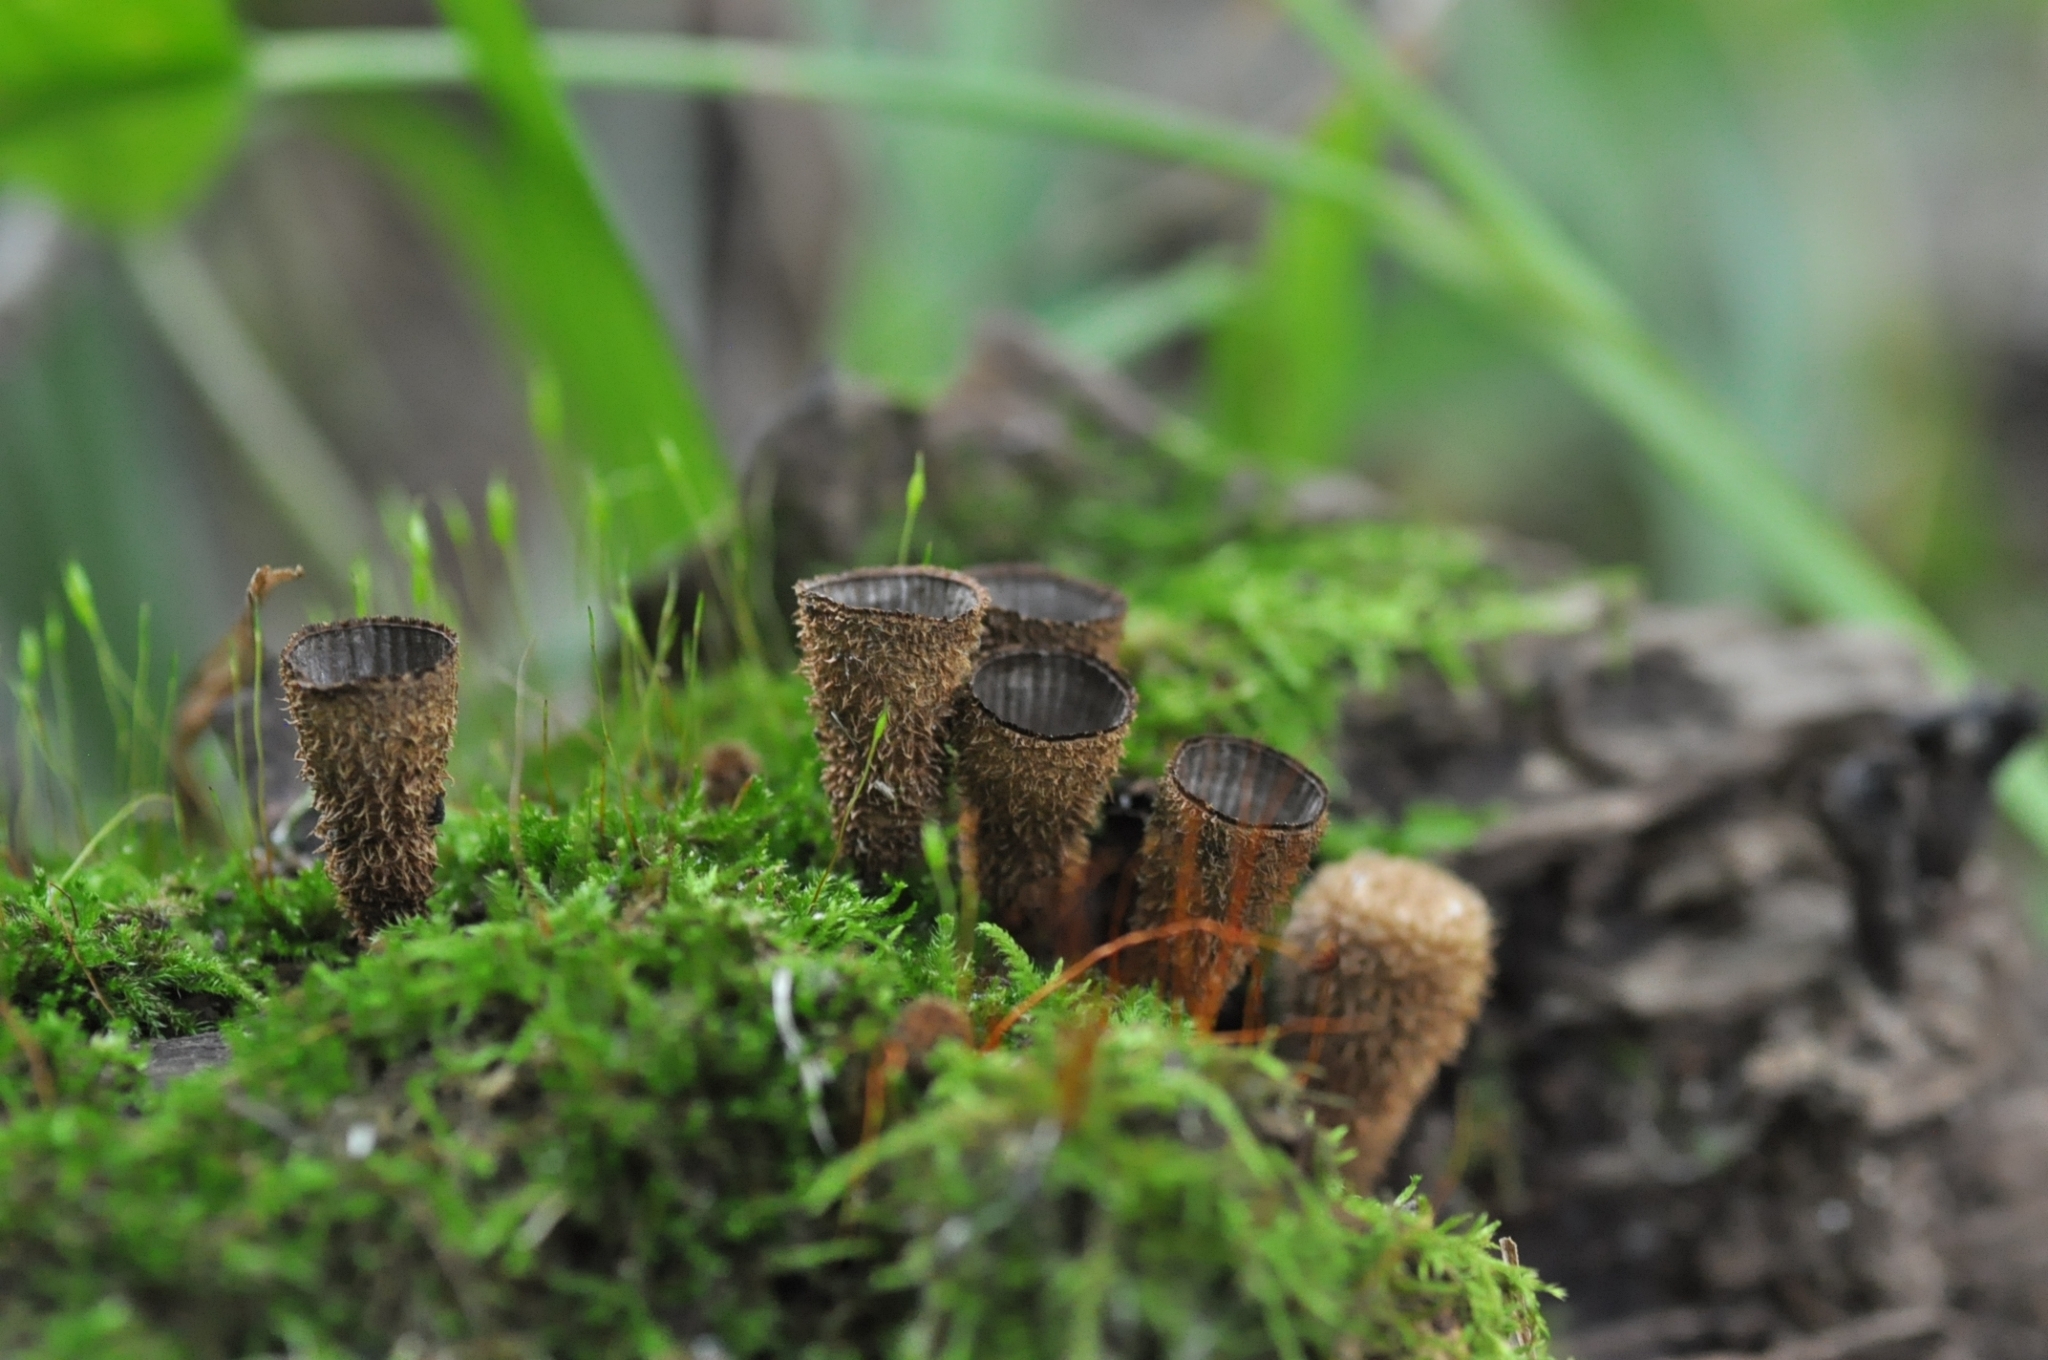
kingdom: Fungi
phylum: Basidiomycota
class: Agaricomycetes
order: Agaricales
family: Agaricaceae
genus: Cyathus
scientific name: Cyathus striatus
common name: Fluted bird's nest
